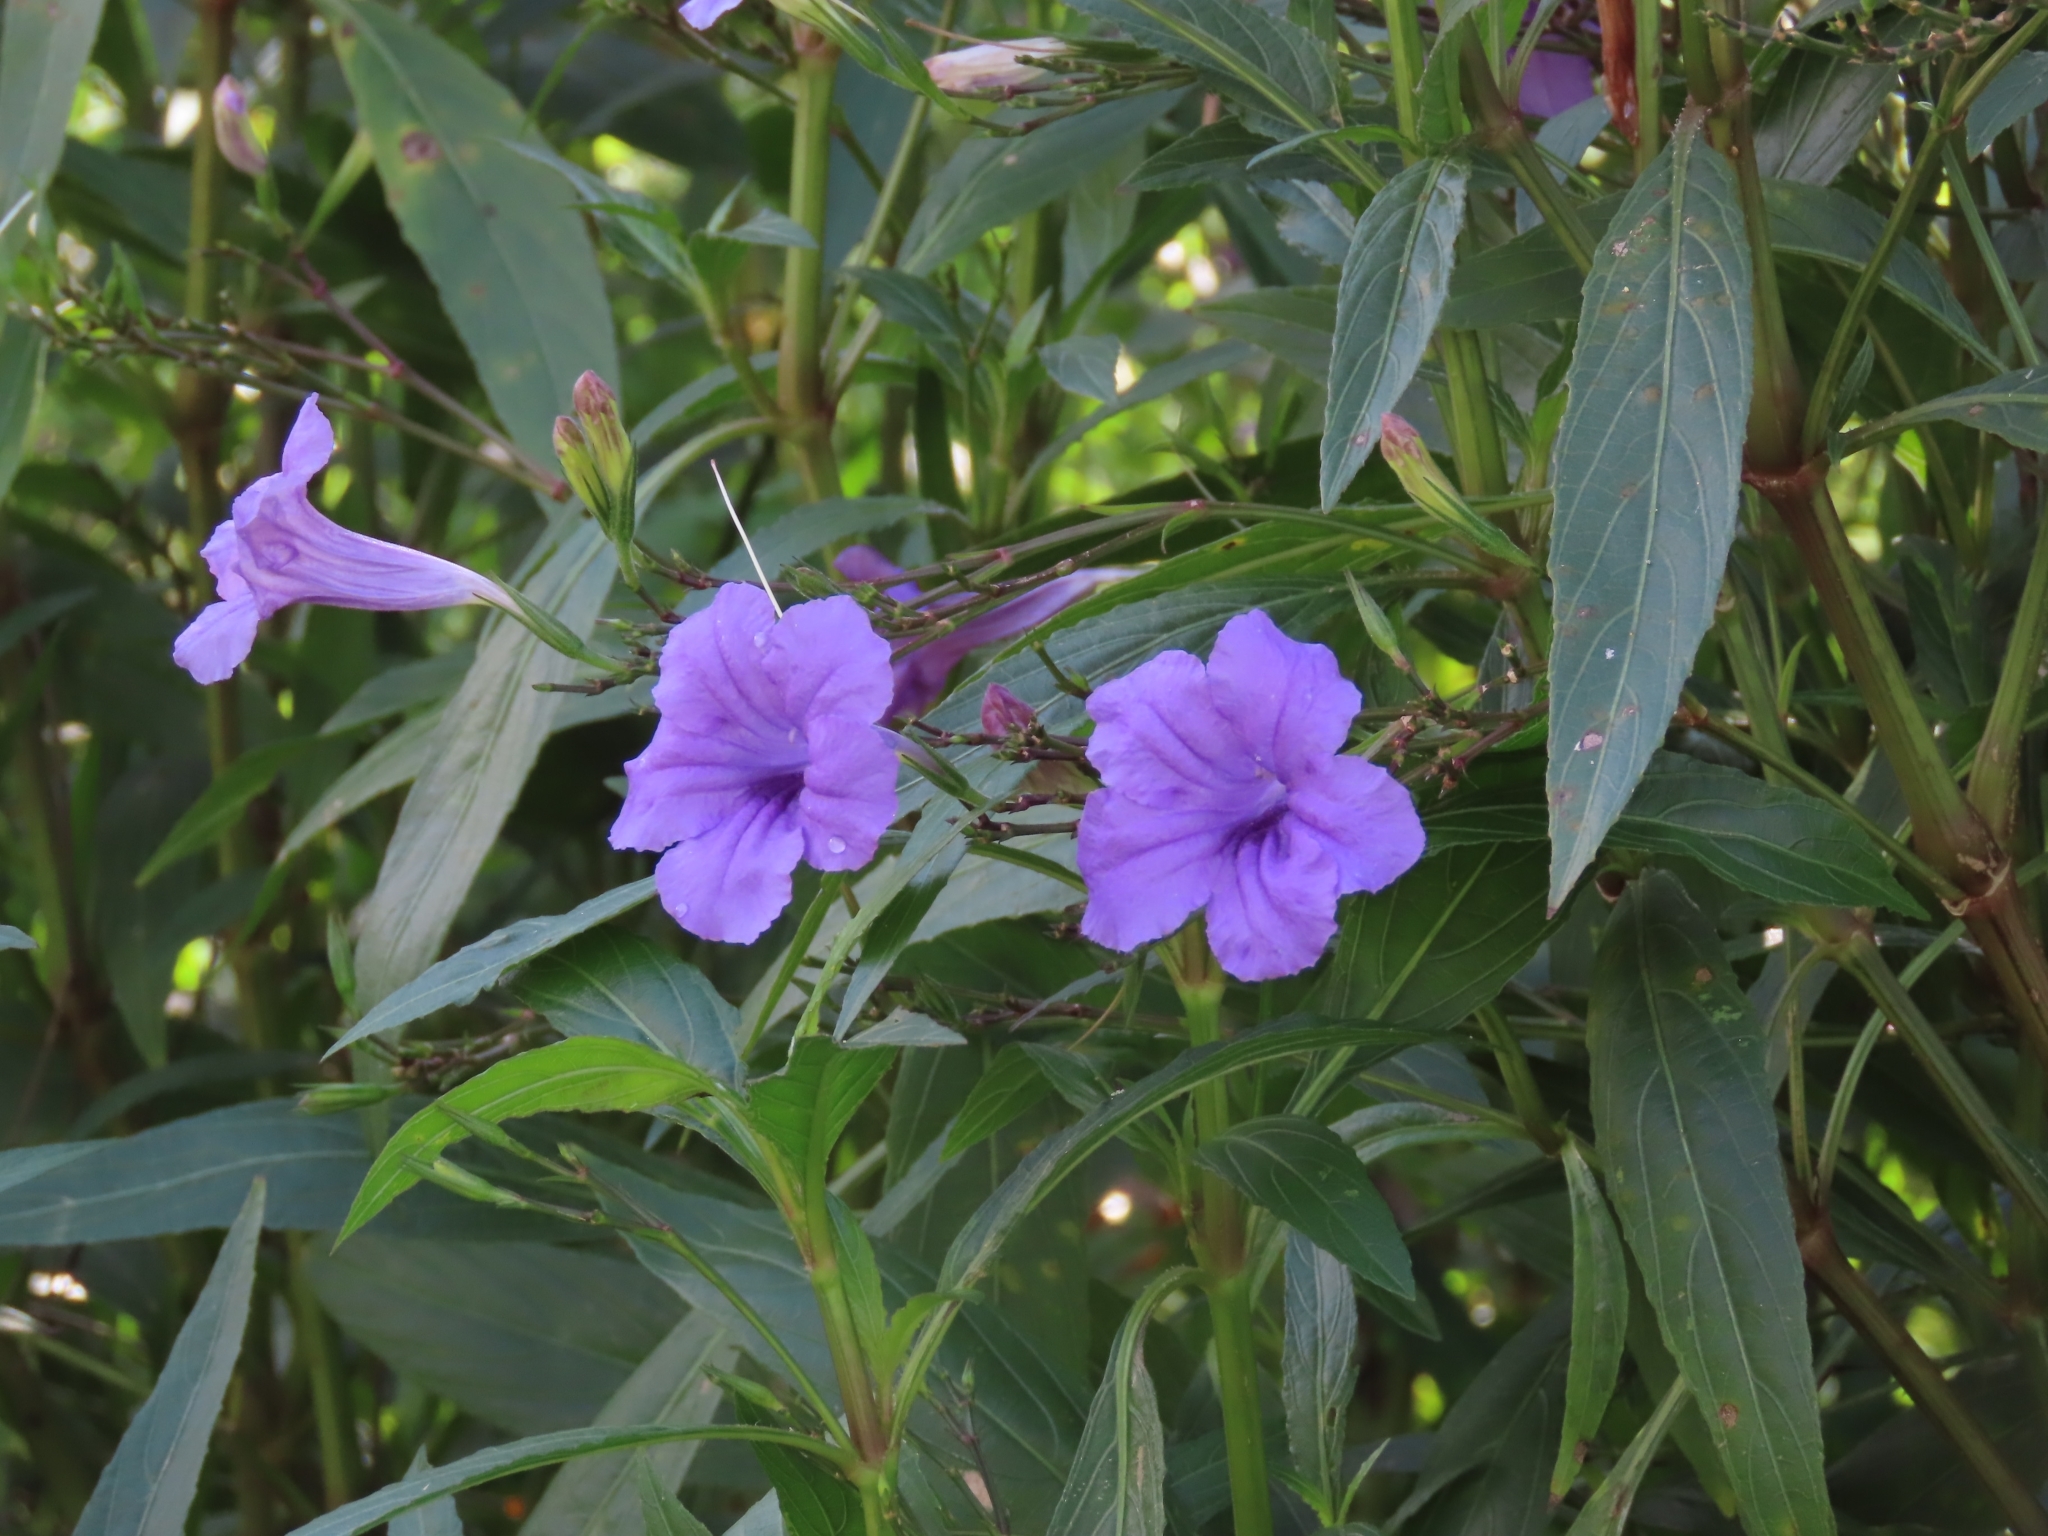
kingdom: Plantae
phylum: Tracheophyta
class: Magnoliopsida
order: Lamiales
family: Acanthaceae
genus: Ruellia
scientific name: Ruellia simplex
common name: Softseed wild petunia
